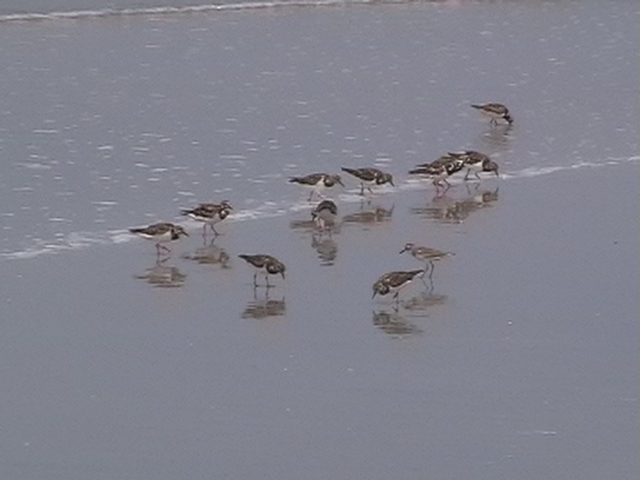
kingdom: Animalia
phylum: Chordata
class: Aves
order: Charadriiformes
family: Scolopacidae
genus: Arenaria
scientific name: Arenaria interpres
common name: Ruddy turnstone
